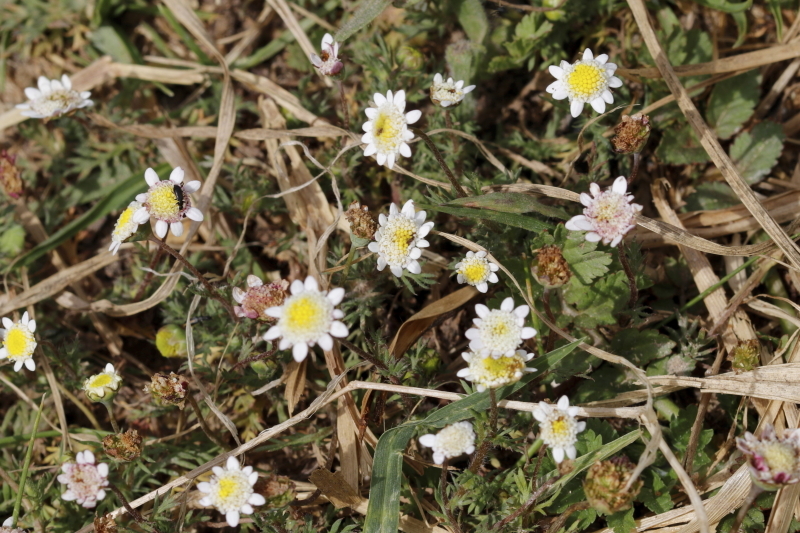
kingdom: Plantae
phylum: Tracheophyta
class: Magnoliopsida
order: Asterales
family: Asteraceae
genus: Cotula
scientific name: Cotula turbinata
